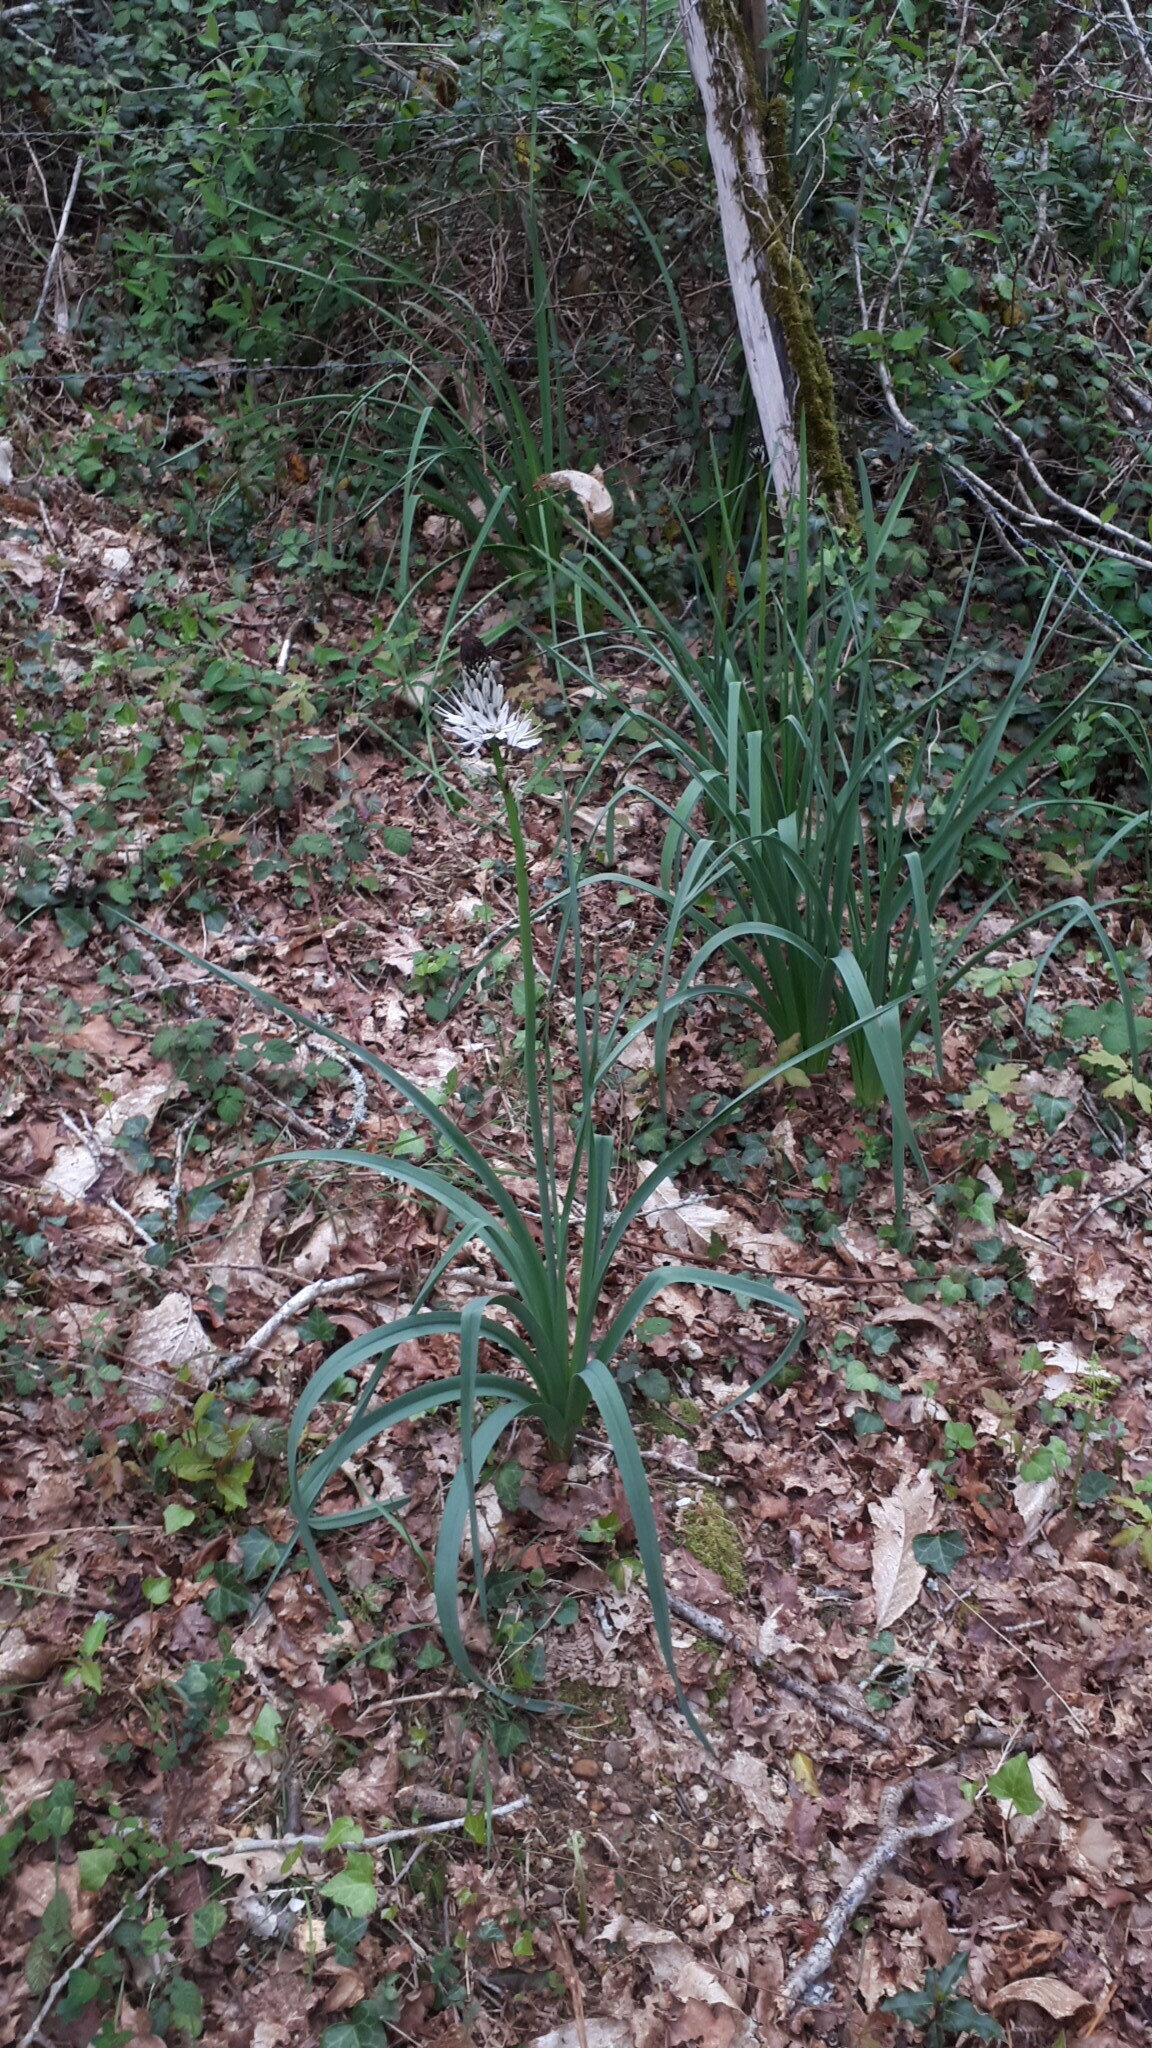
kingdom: Plantae
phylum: Tracheophyta
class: Liliopsida
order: Asparagales
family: Asphodelaceae
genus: Asphodelus
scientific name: Asphodelus albus
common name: White asphodel
